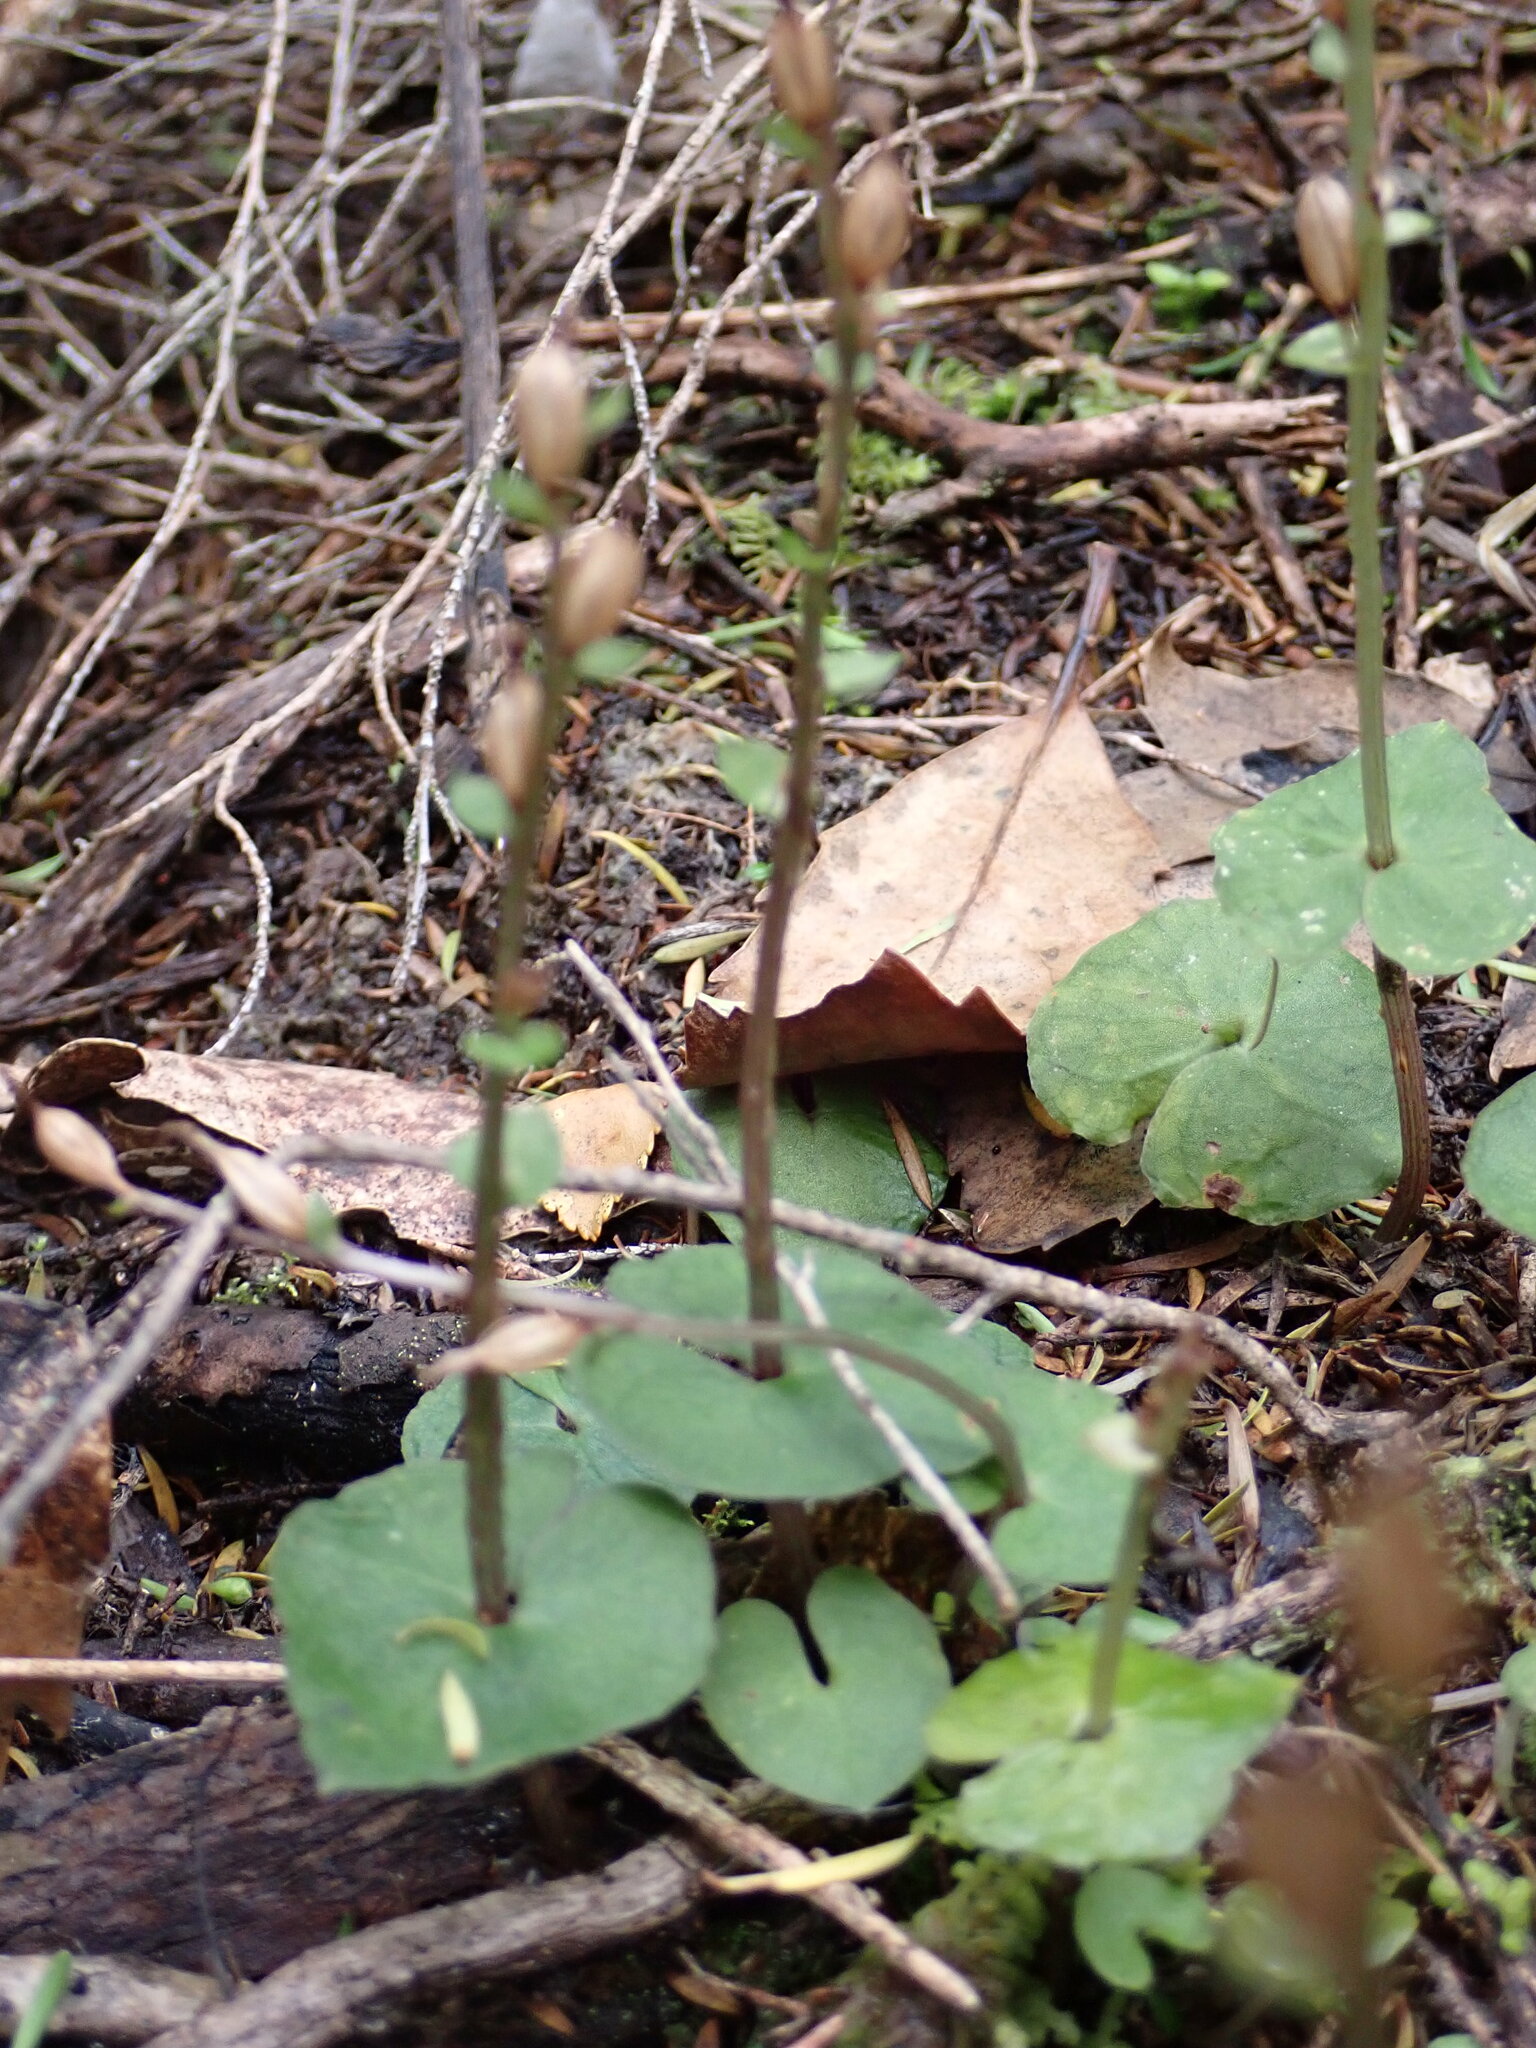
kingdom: Plantae
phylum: Tracheophyta
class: Liliopsida
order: Asparagales
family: Orchidaceae
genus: Acianthus
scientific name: Acianthus sinclairii
